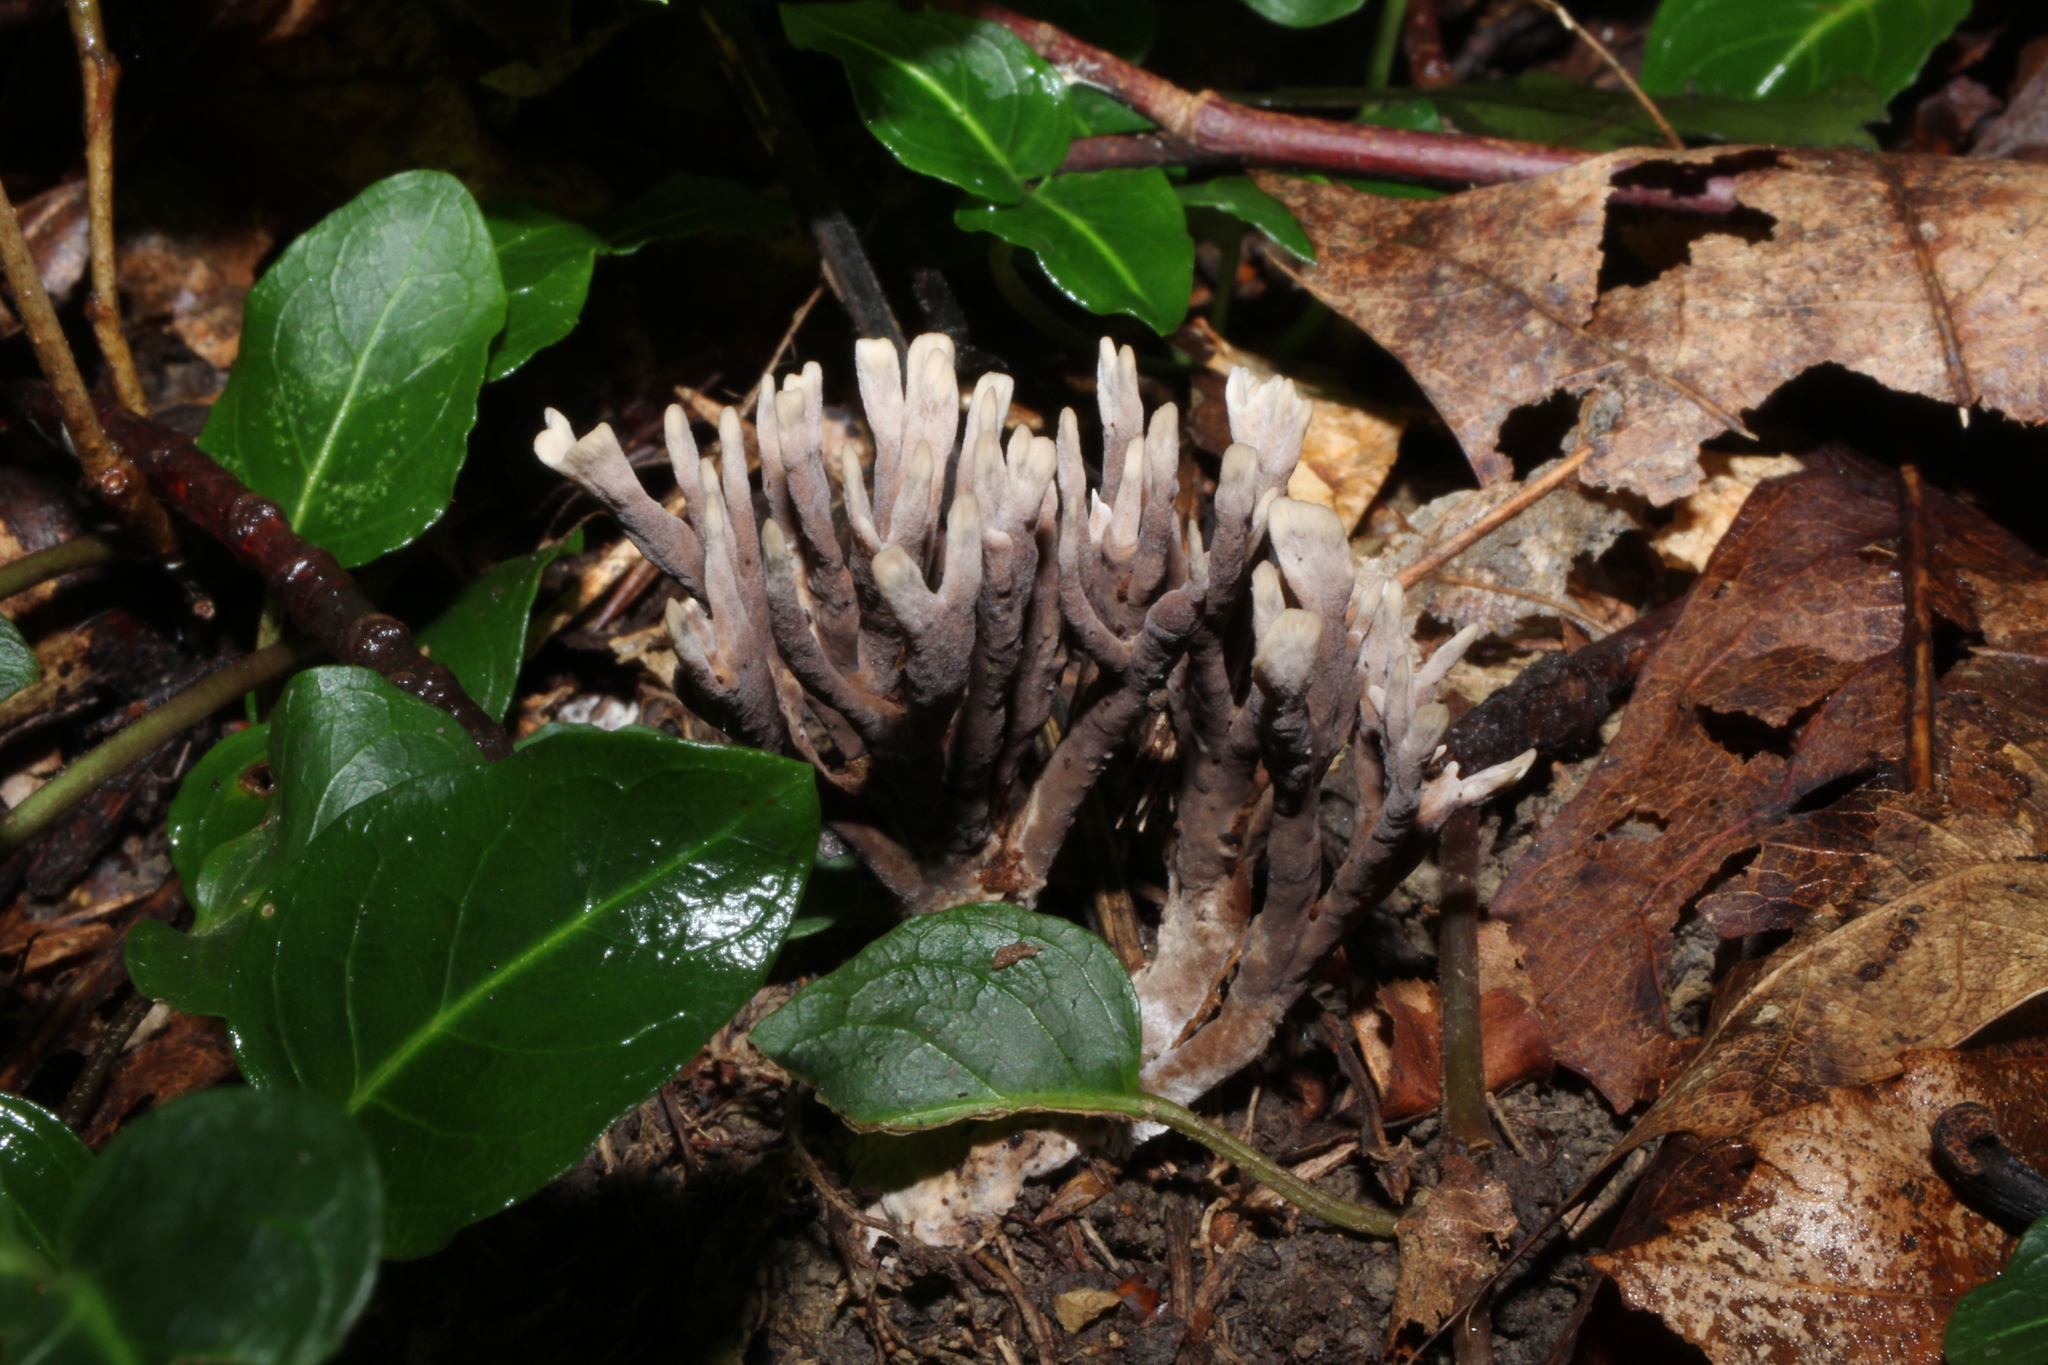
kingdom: Fungi
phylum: Basidiomycota
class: Agaricomycetes
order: Thelephorales
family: Thelephoraceae
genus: Thelephora
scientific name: Thelephora palmata
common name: Stinking earthfan
